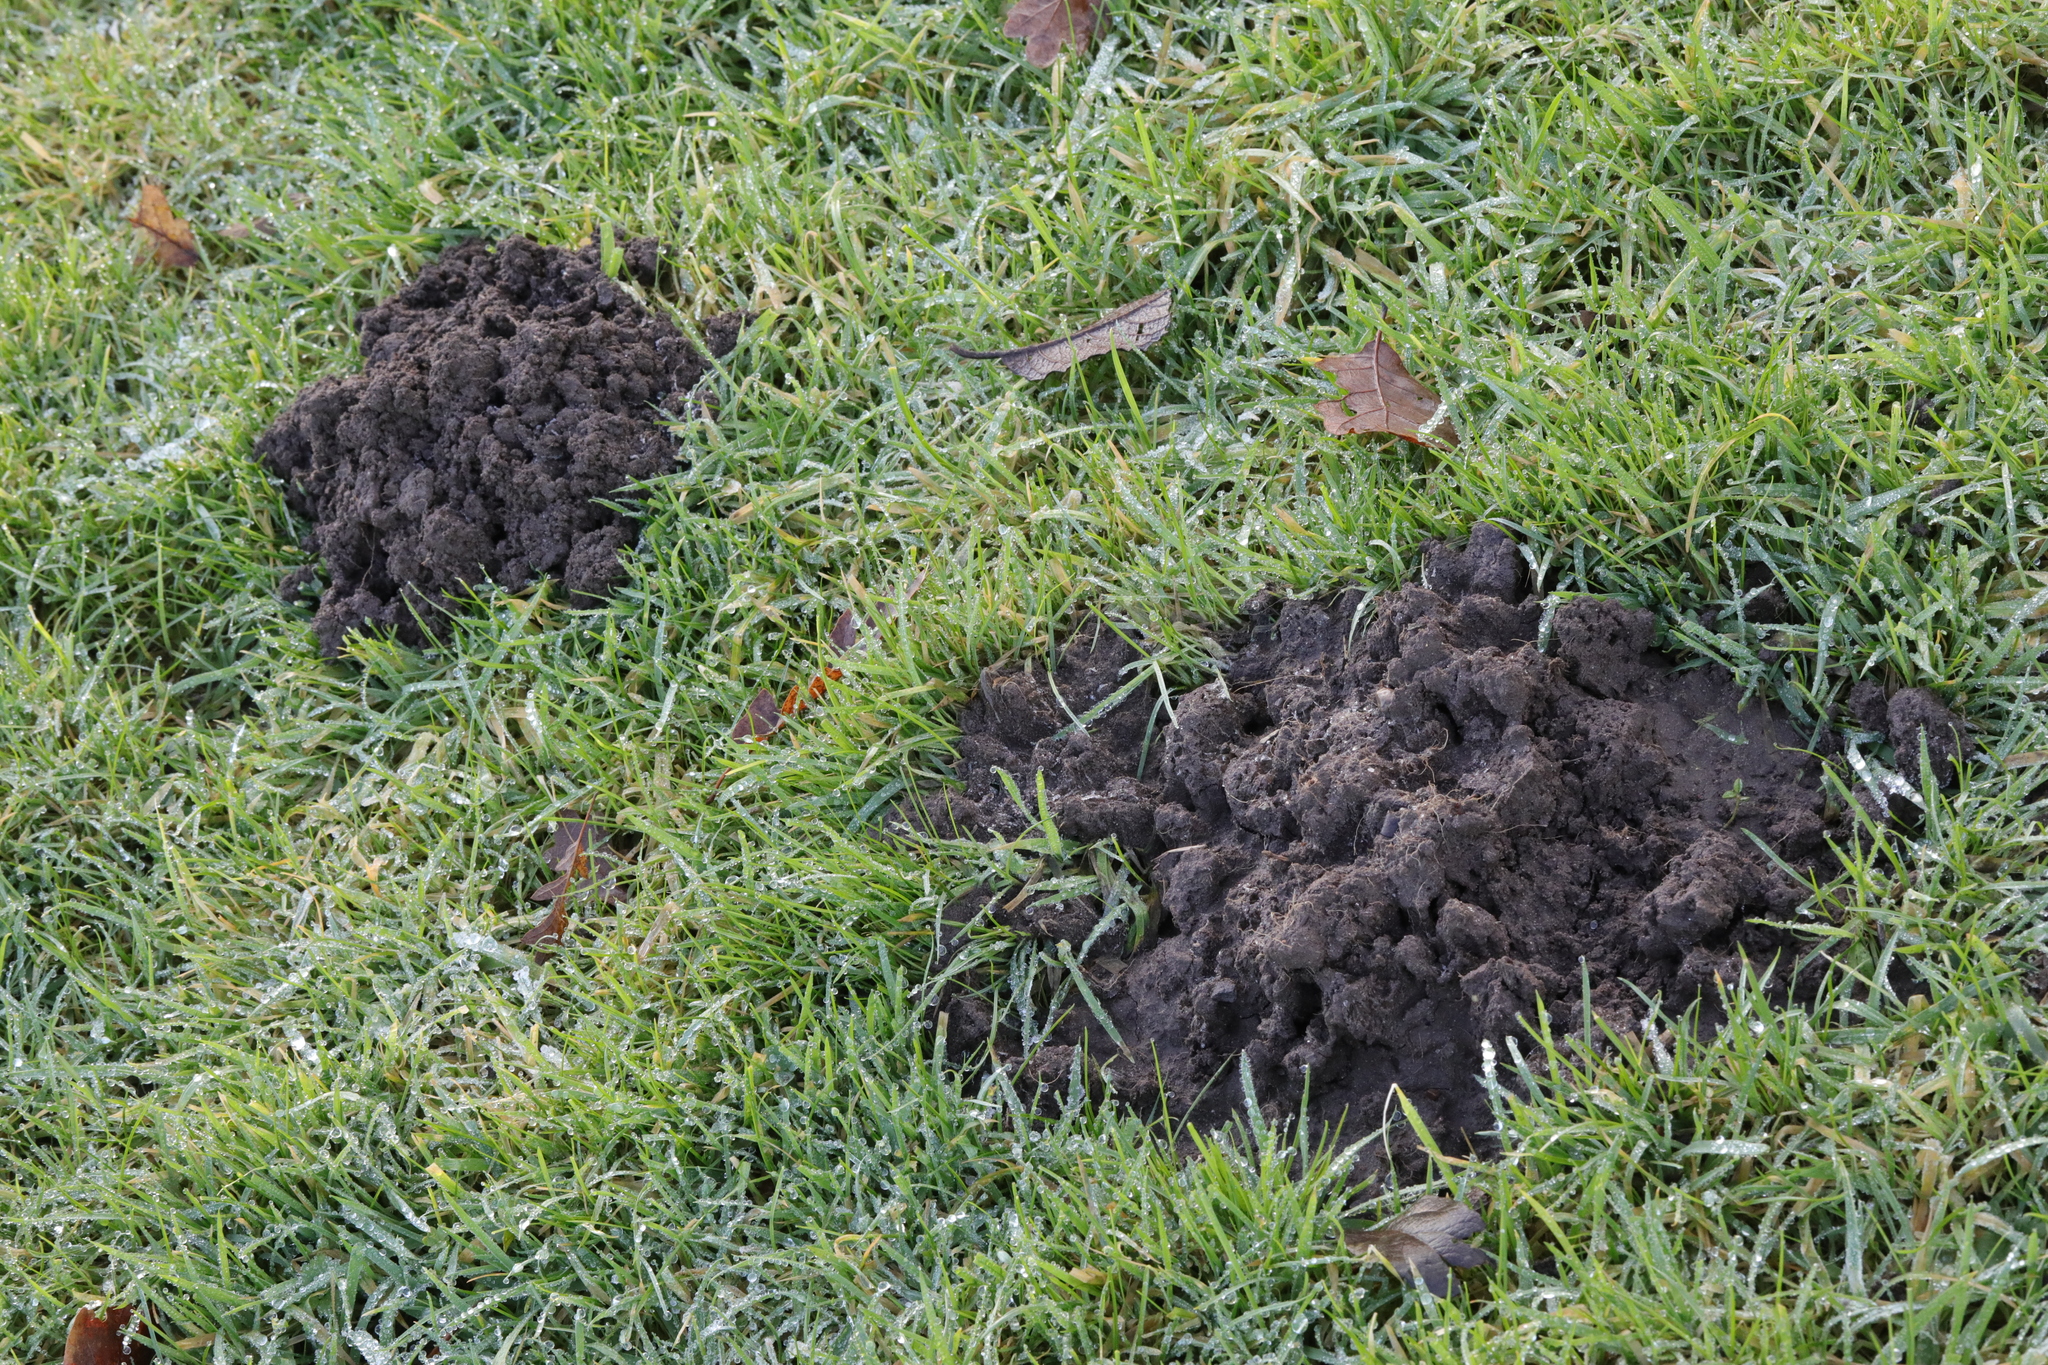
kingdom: Animalia
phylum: Chordata
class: Mammalia
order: Soricomorpha
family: Talpidae
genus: Talpa
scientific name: Talpa europaea
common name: European mole
